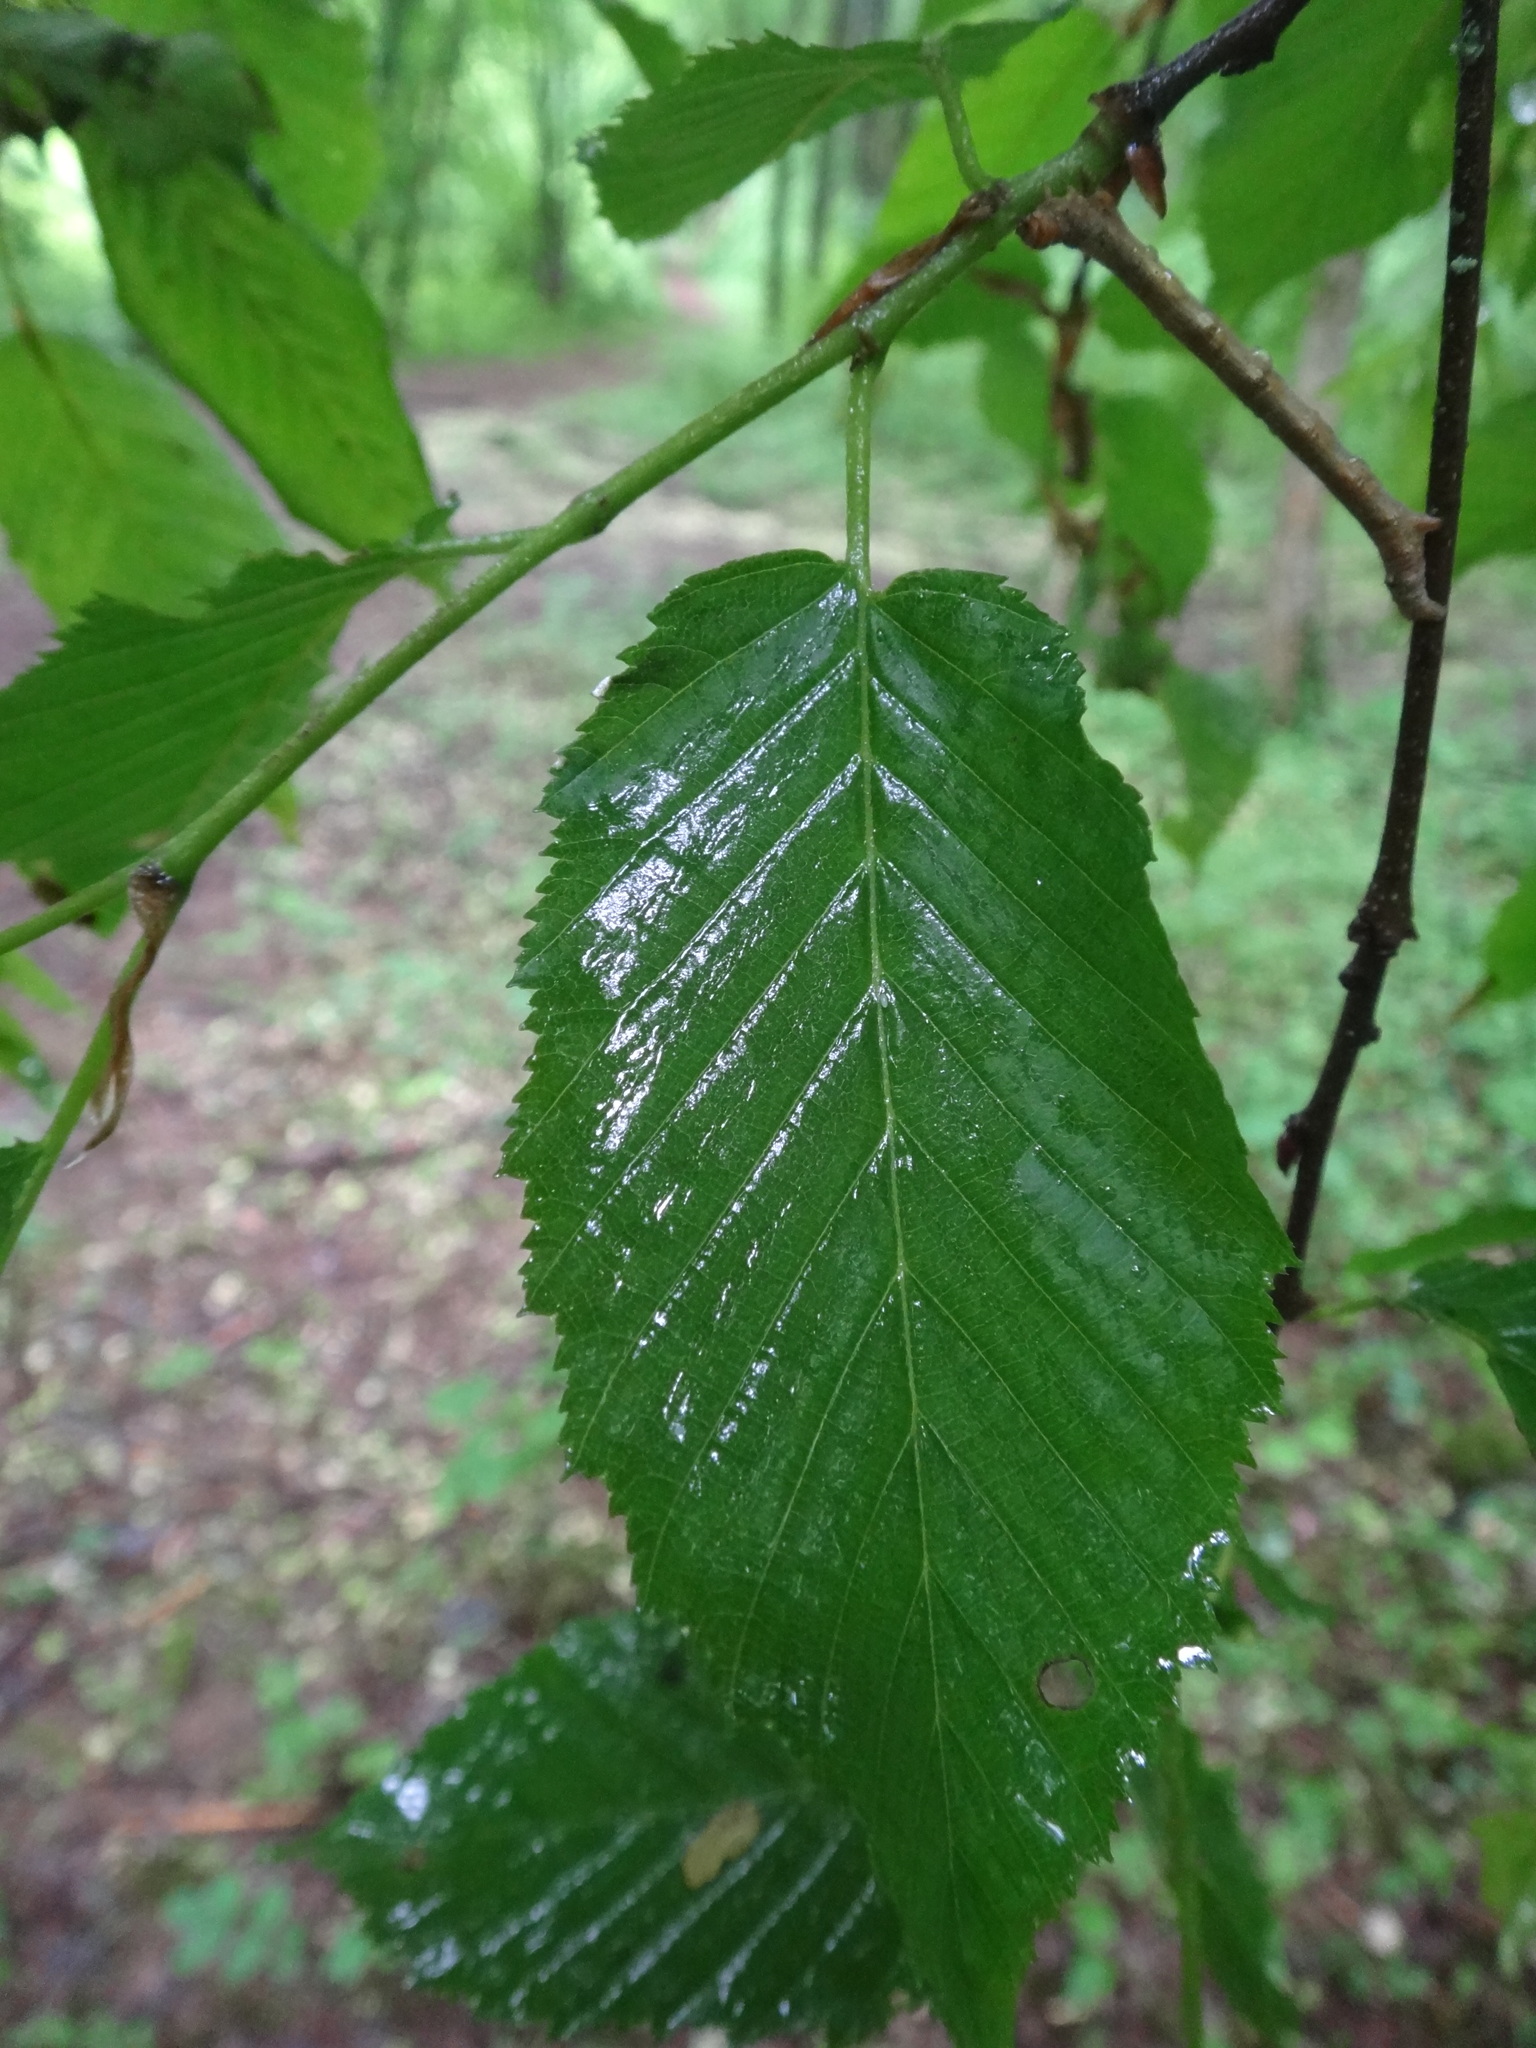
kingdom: Plantae
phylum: Tracheophyta
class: Magnoliopsida
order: Fagales
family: Betulaceae
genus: Carpinus
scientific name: Carpinus betulus
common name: Hornbeam
